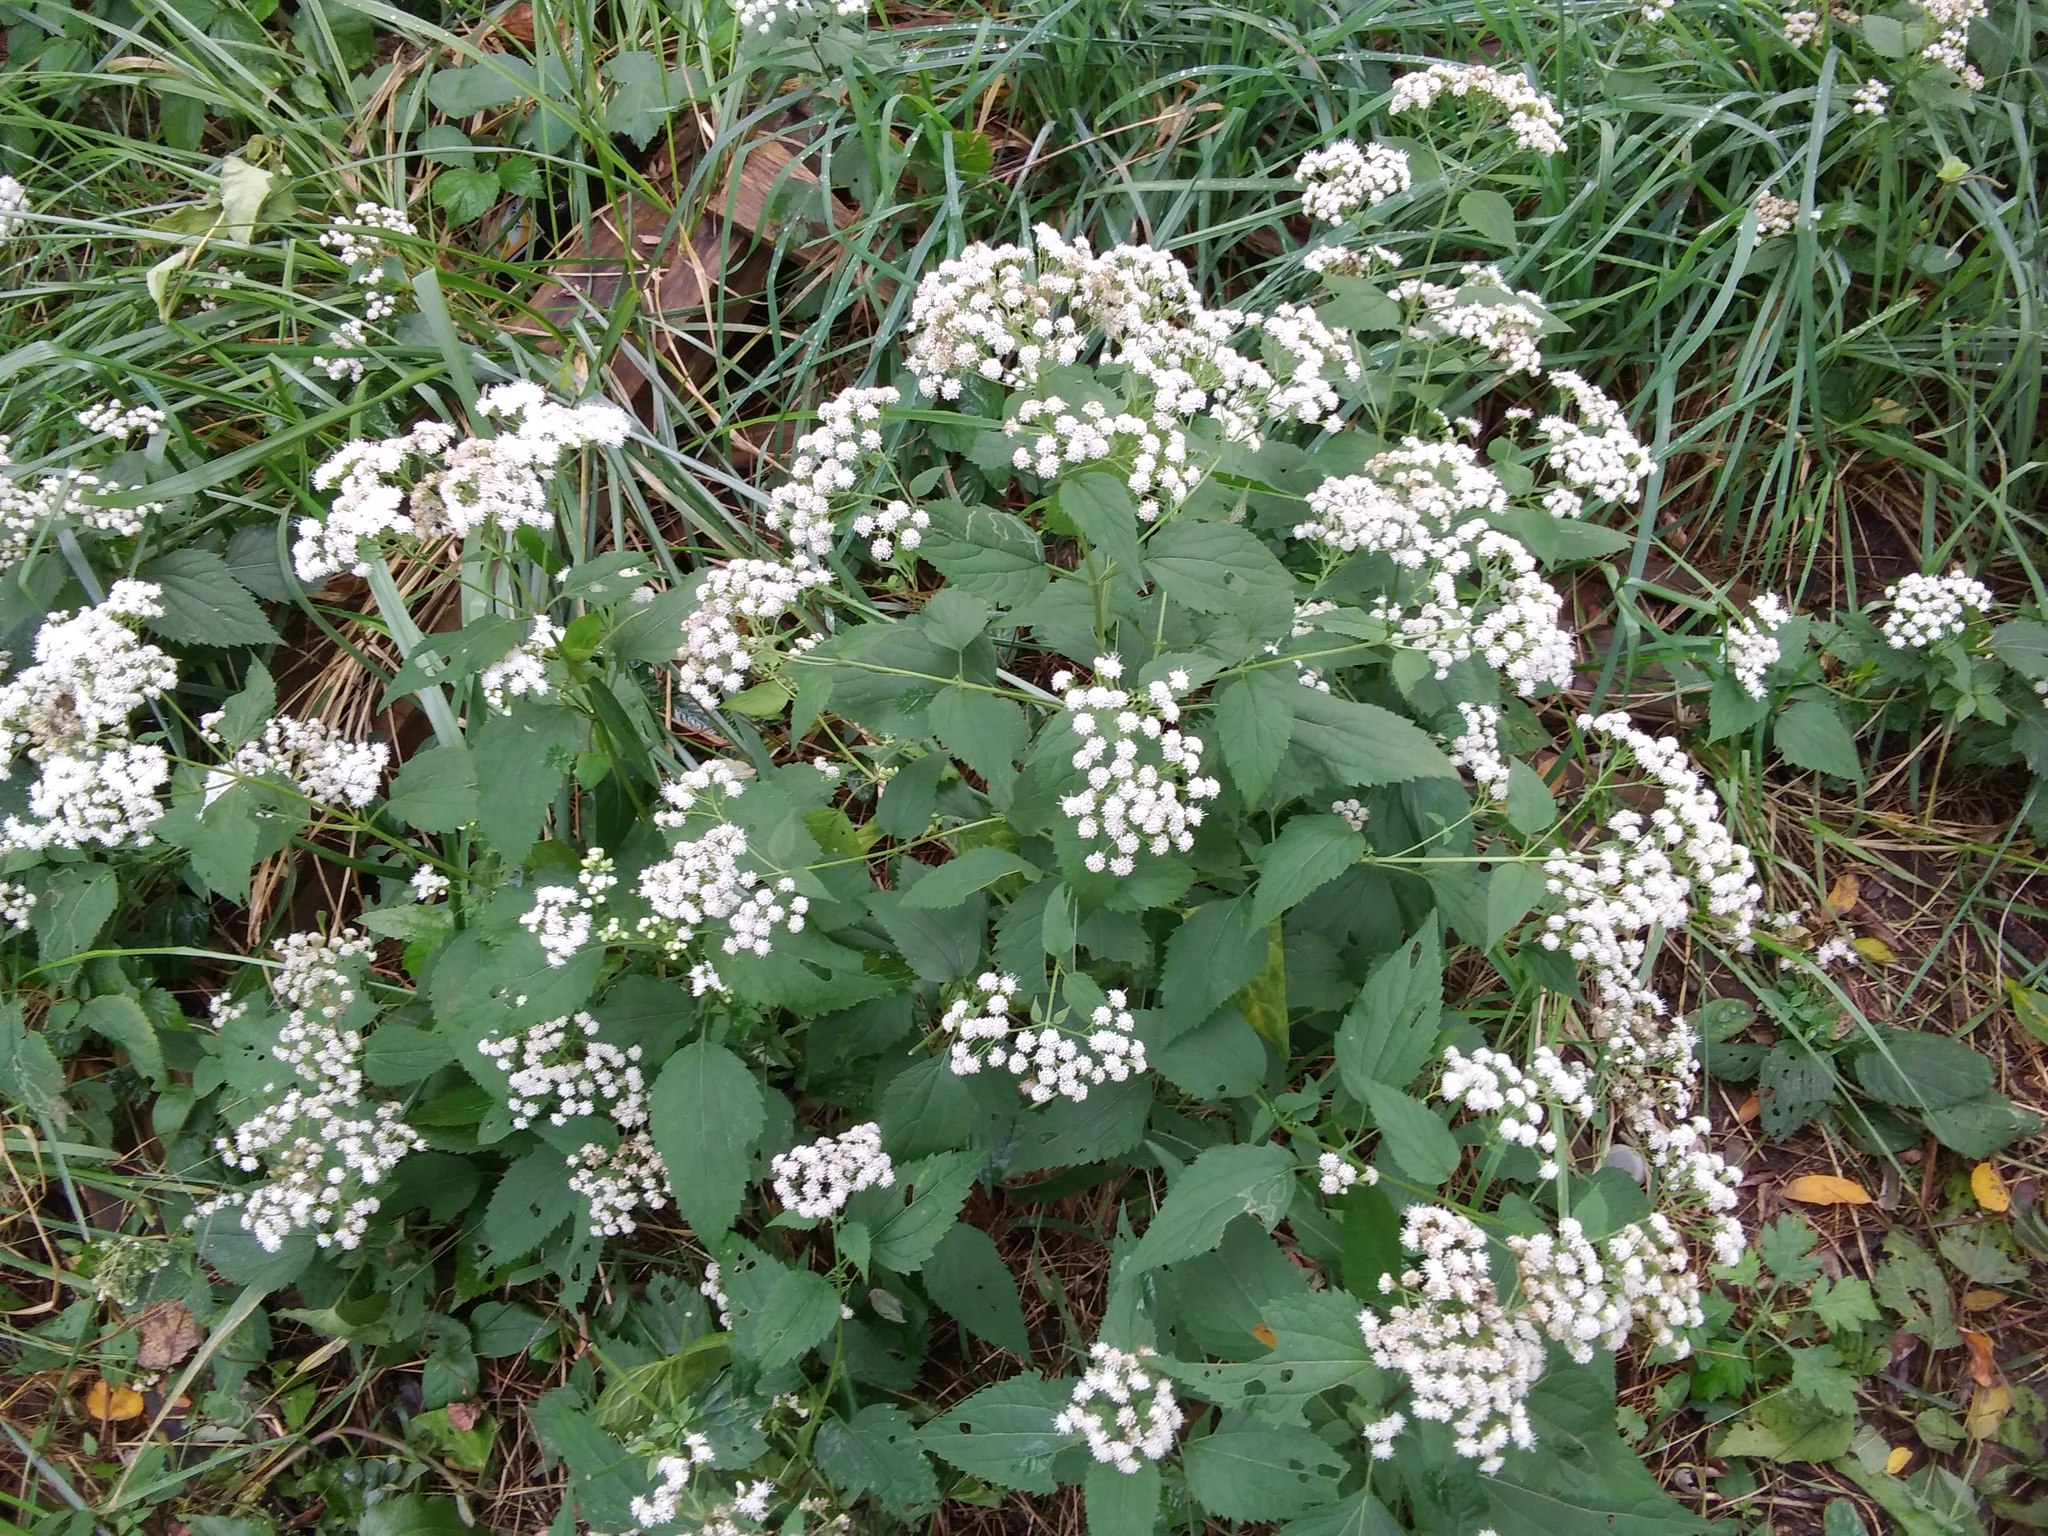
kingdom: Plantae
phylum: Tracheophyta
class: Magnoliopsida
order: Asterales
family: Asteraceae
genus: Ageratina
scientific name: Ageratina altissima
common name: White snakeroot
